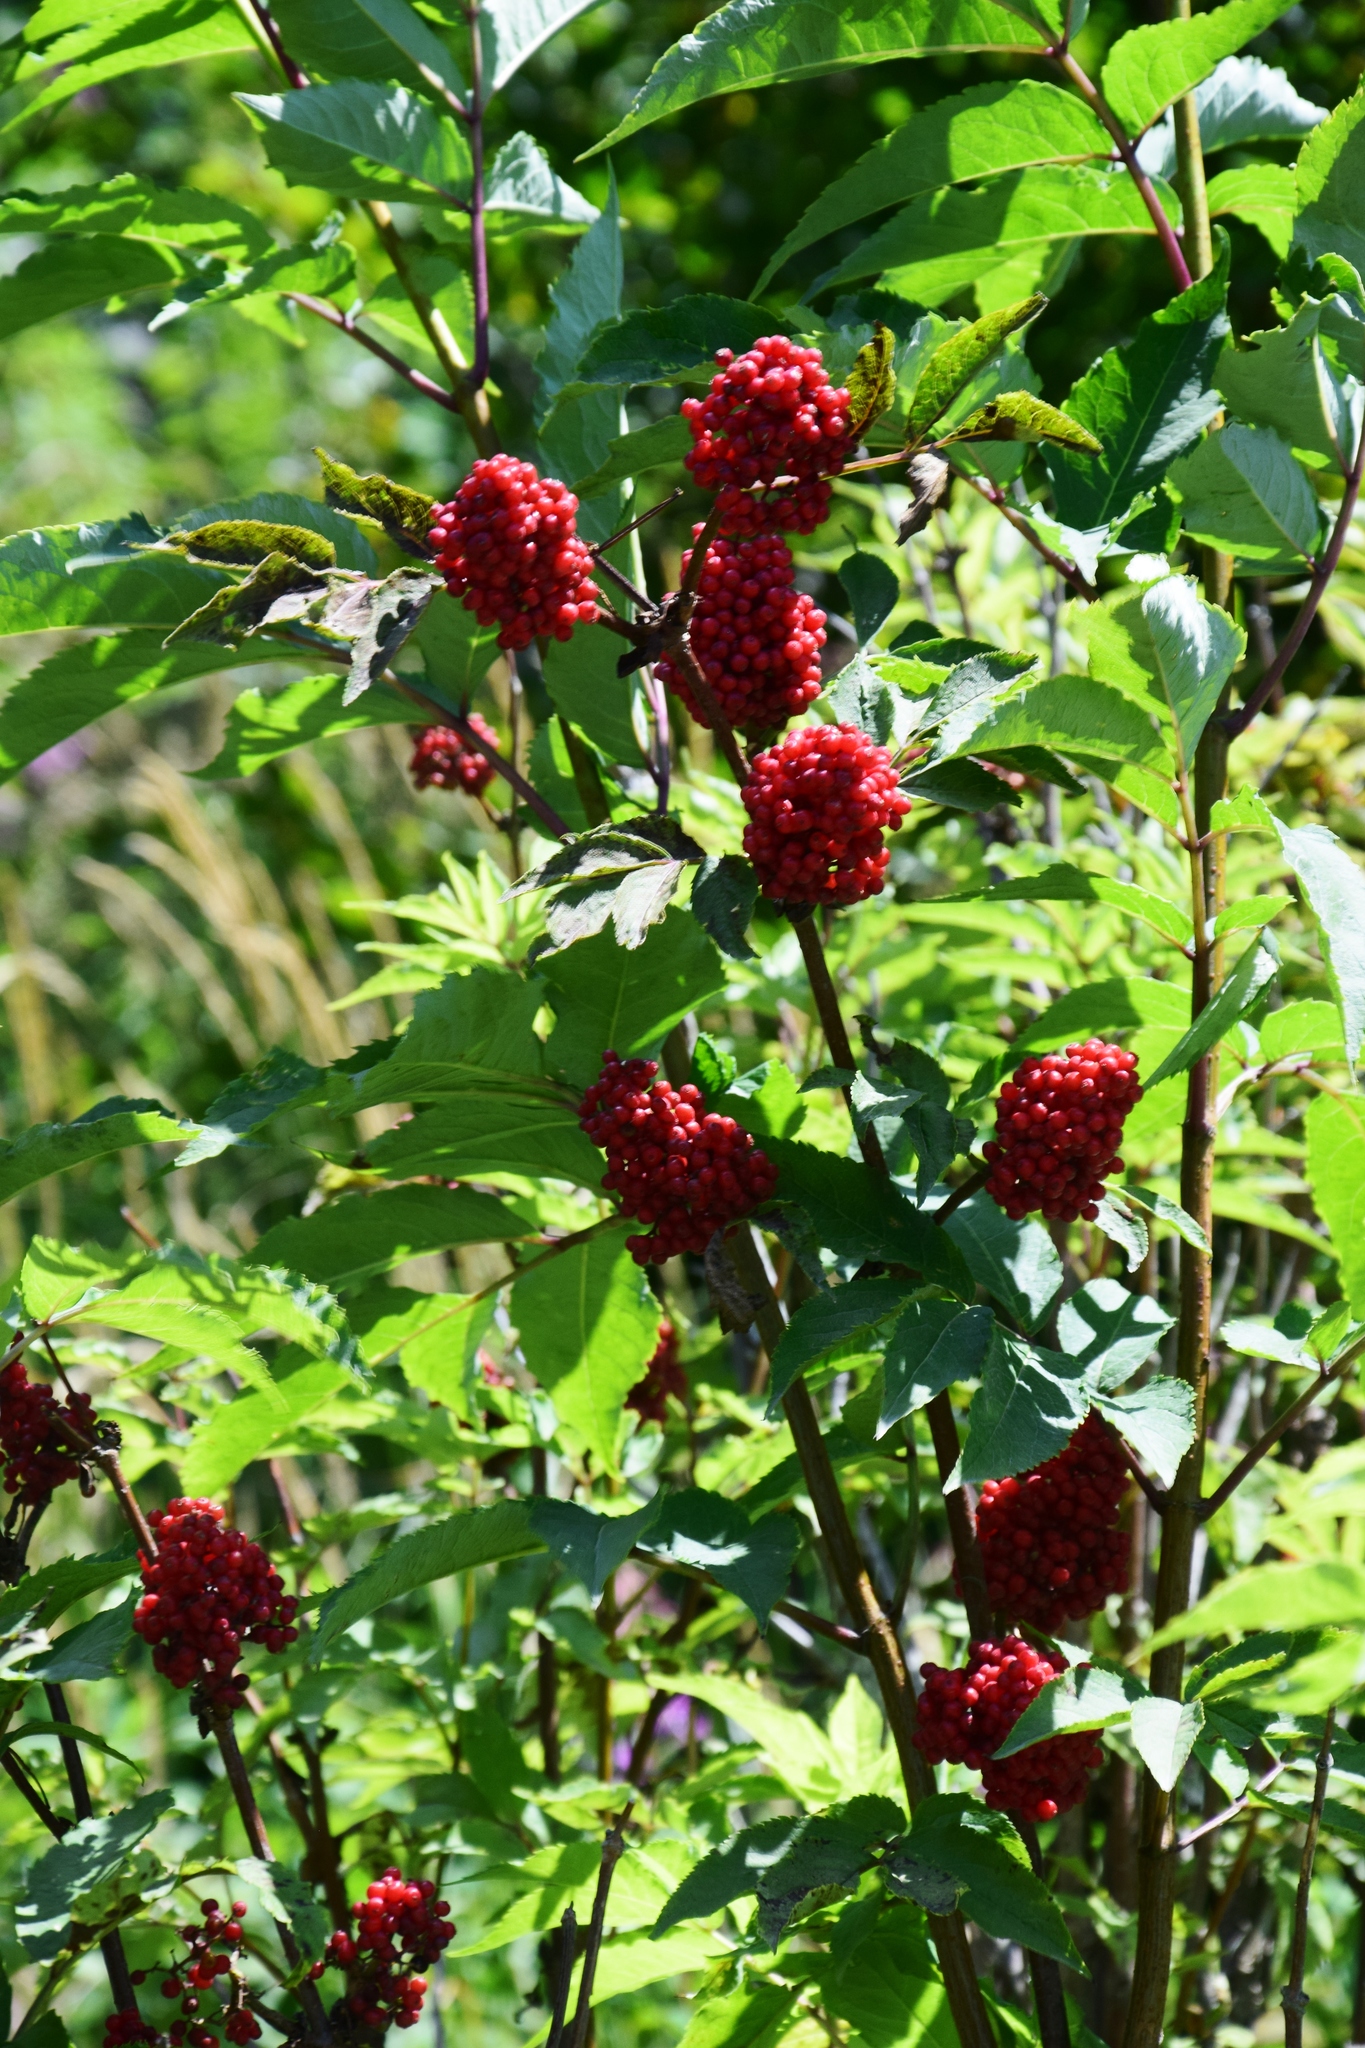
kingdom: Plantae
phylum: Tracheophyta
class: Magnoliopsida
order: Dipsacales
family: Viburnaceae
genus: Sambucus
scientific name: Sambucus racemosa
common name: Red-berried elder
